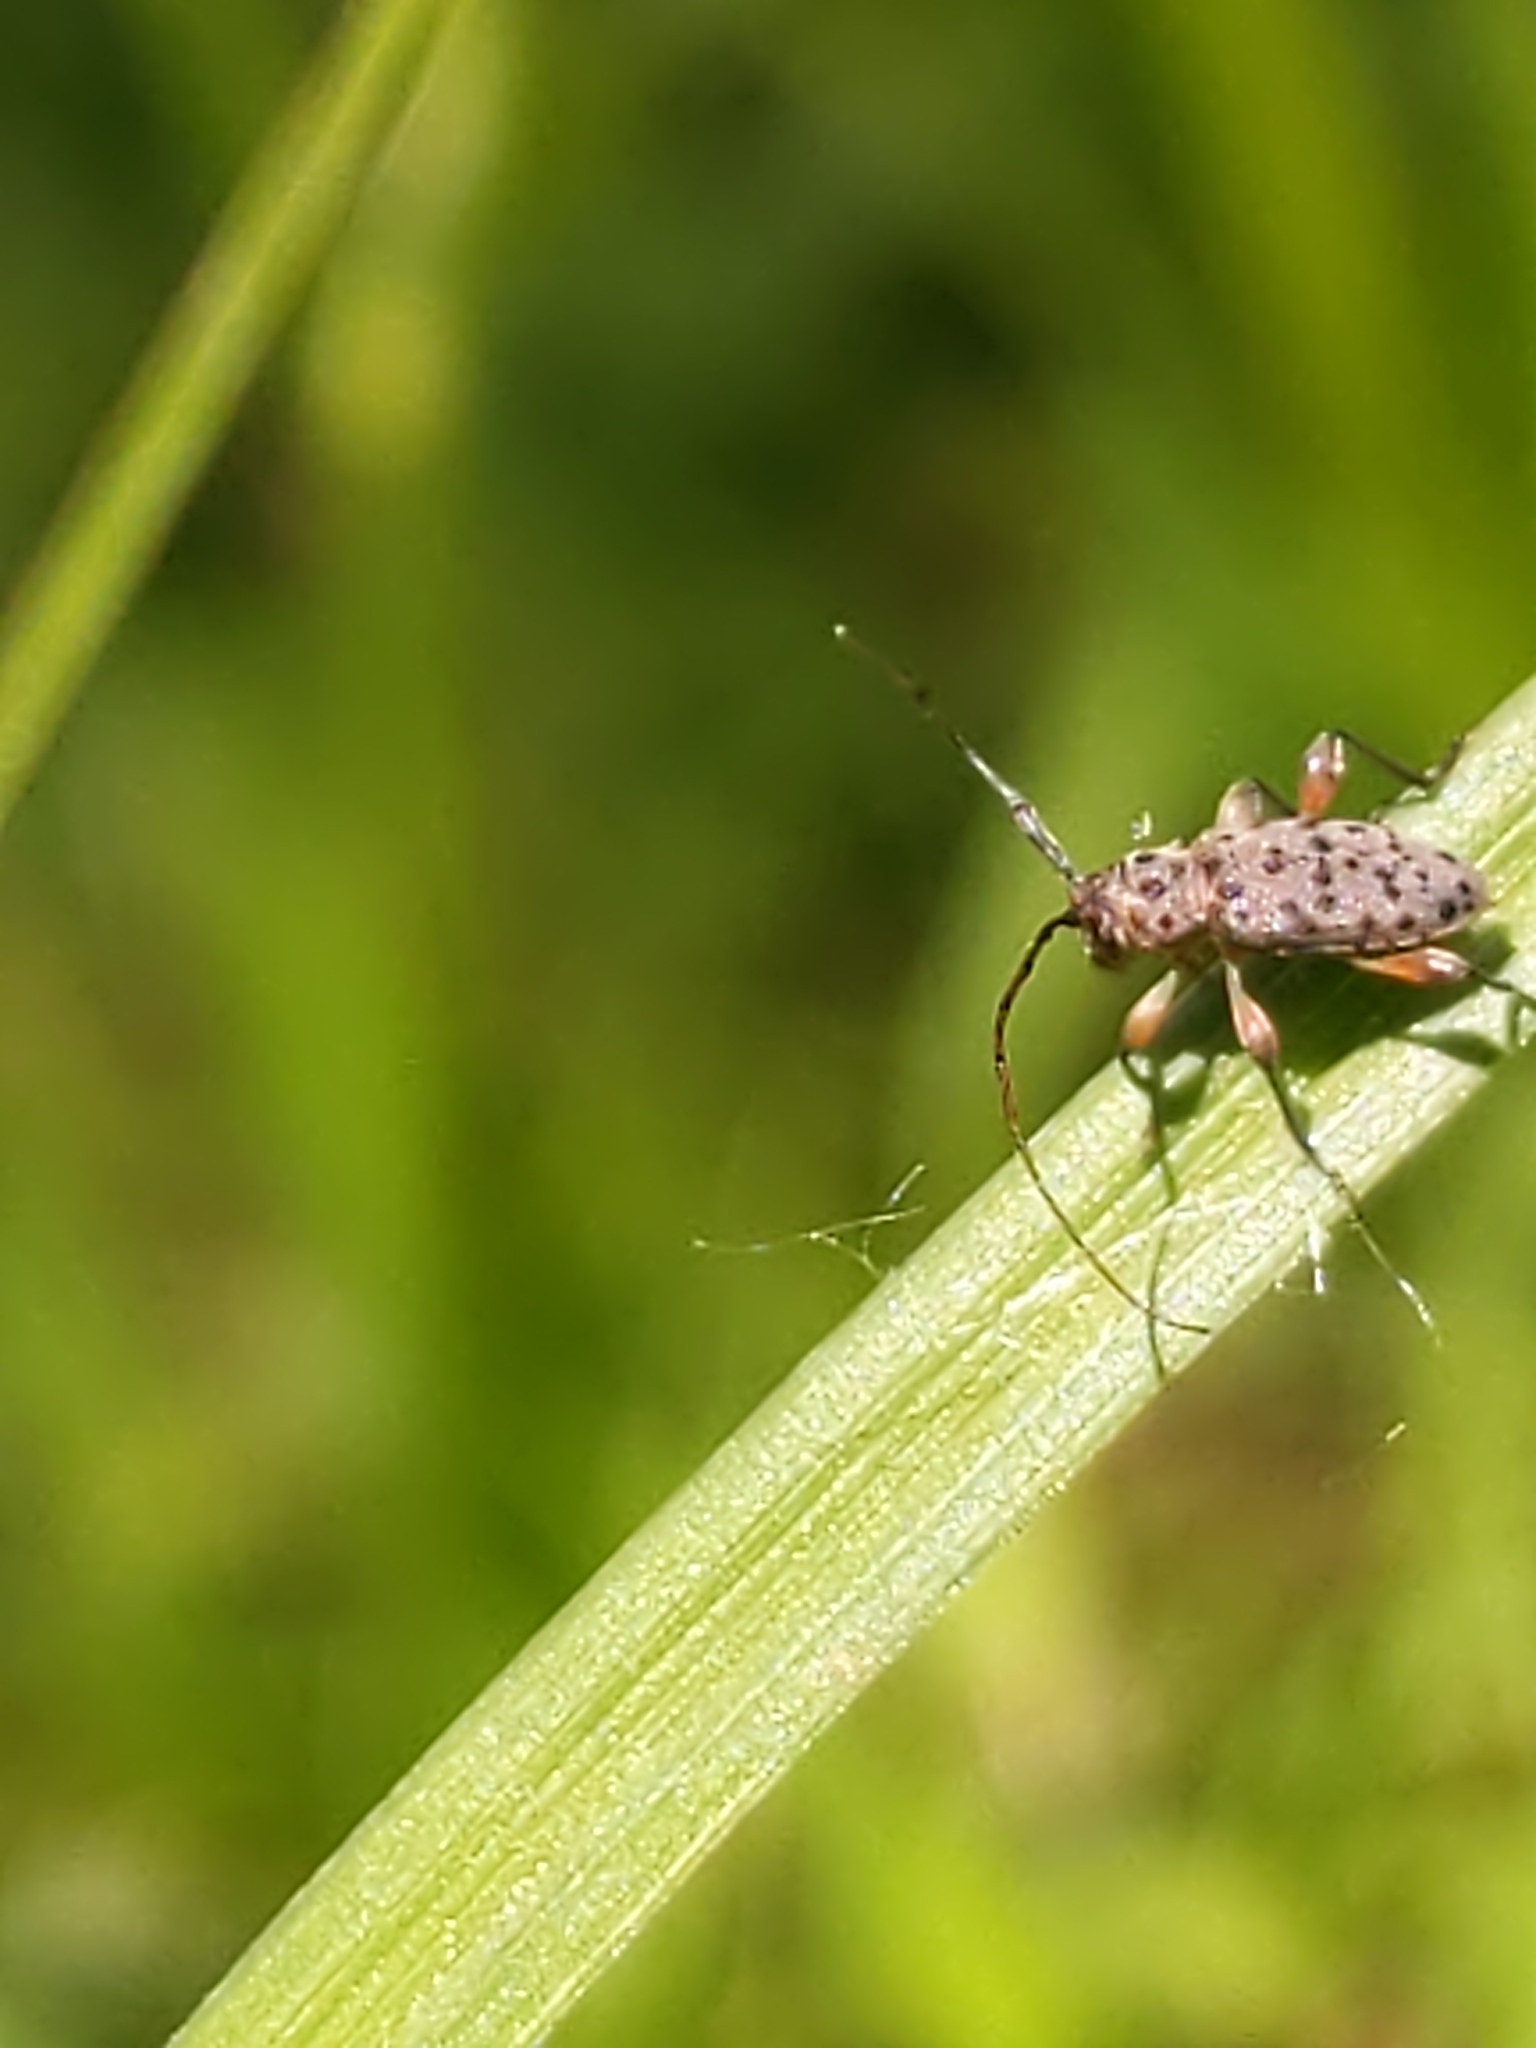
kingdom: Animalia
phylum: Arthropoda
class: Insecta
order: Coleoptera
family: Cerambycidae
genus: Hyperplatys
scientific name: Hyperplatys aspersa
